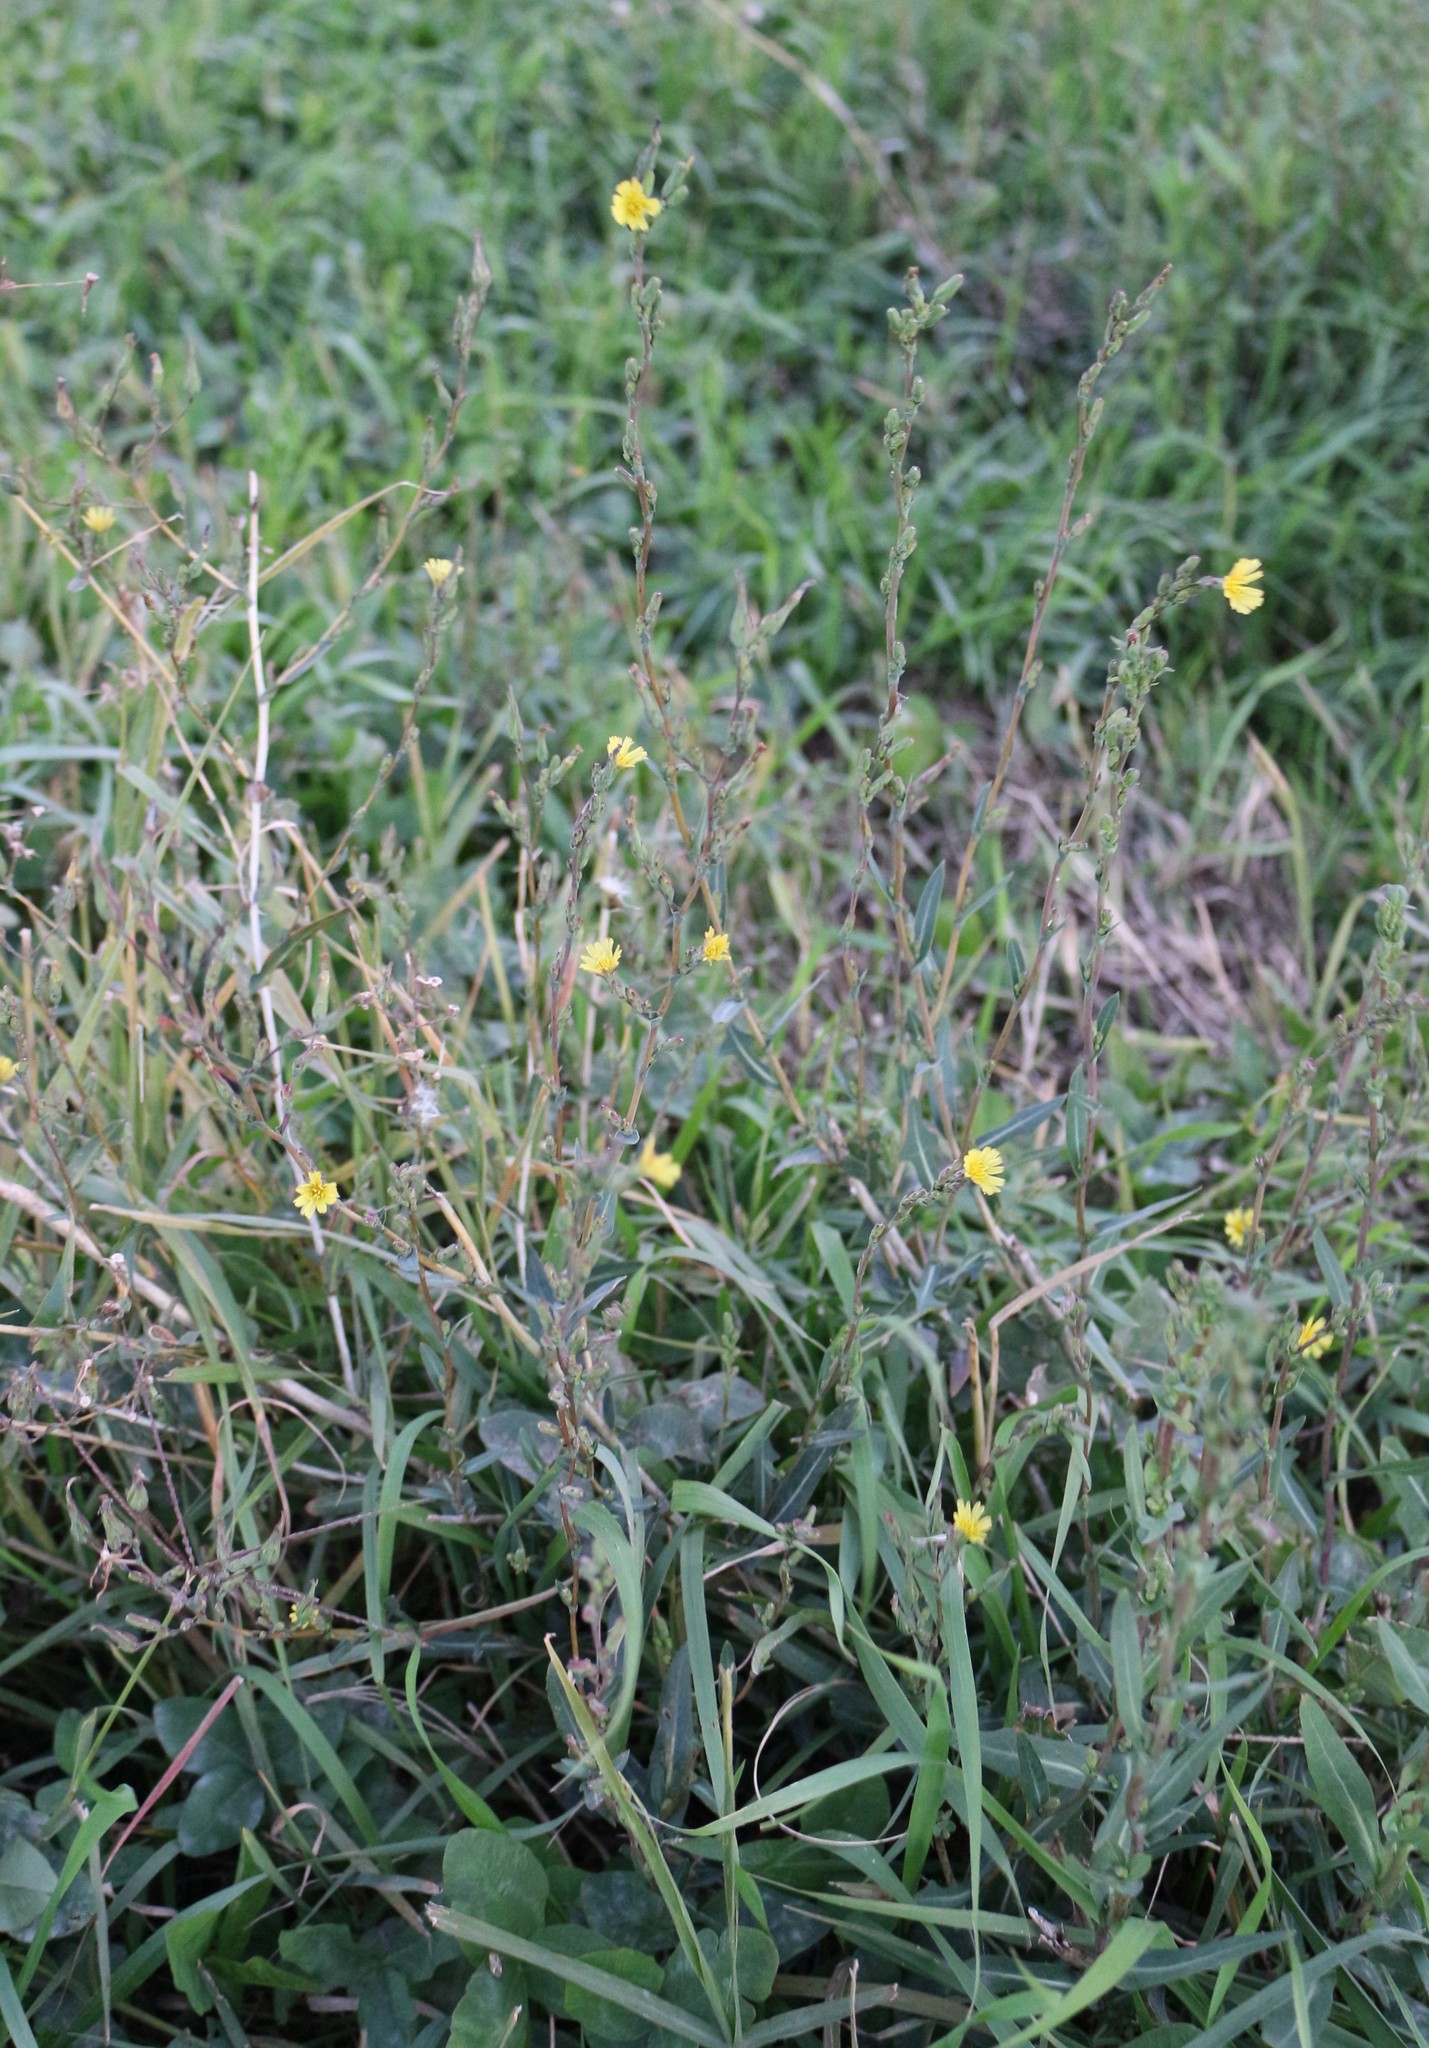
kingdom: Plantae
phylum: Tracheophyta
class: Magnoliopsida
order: Asterales
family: Asteraceae
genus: Lactuca
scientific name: Lactuca serriola
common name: Prickly lettuce
